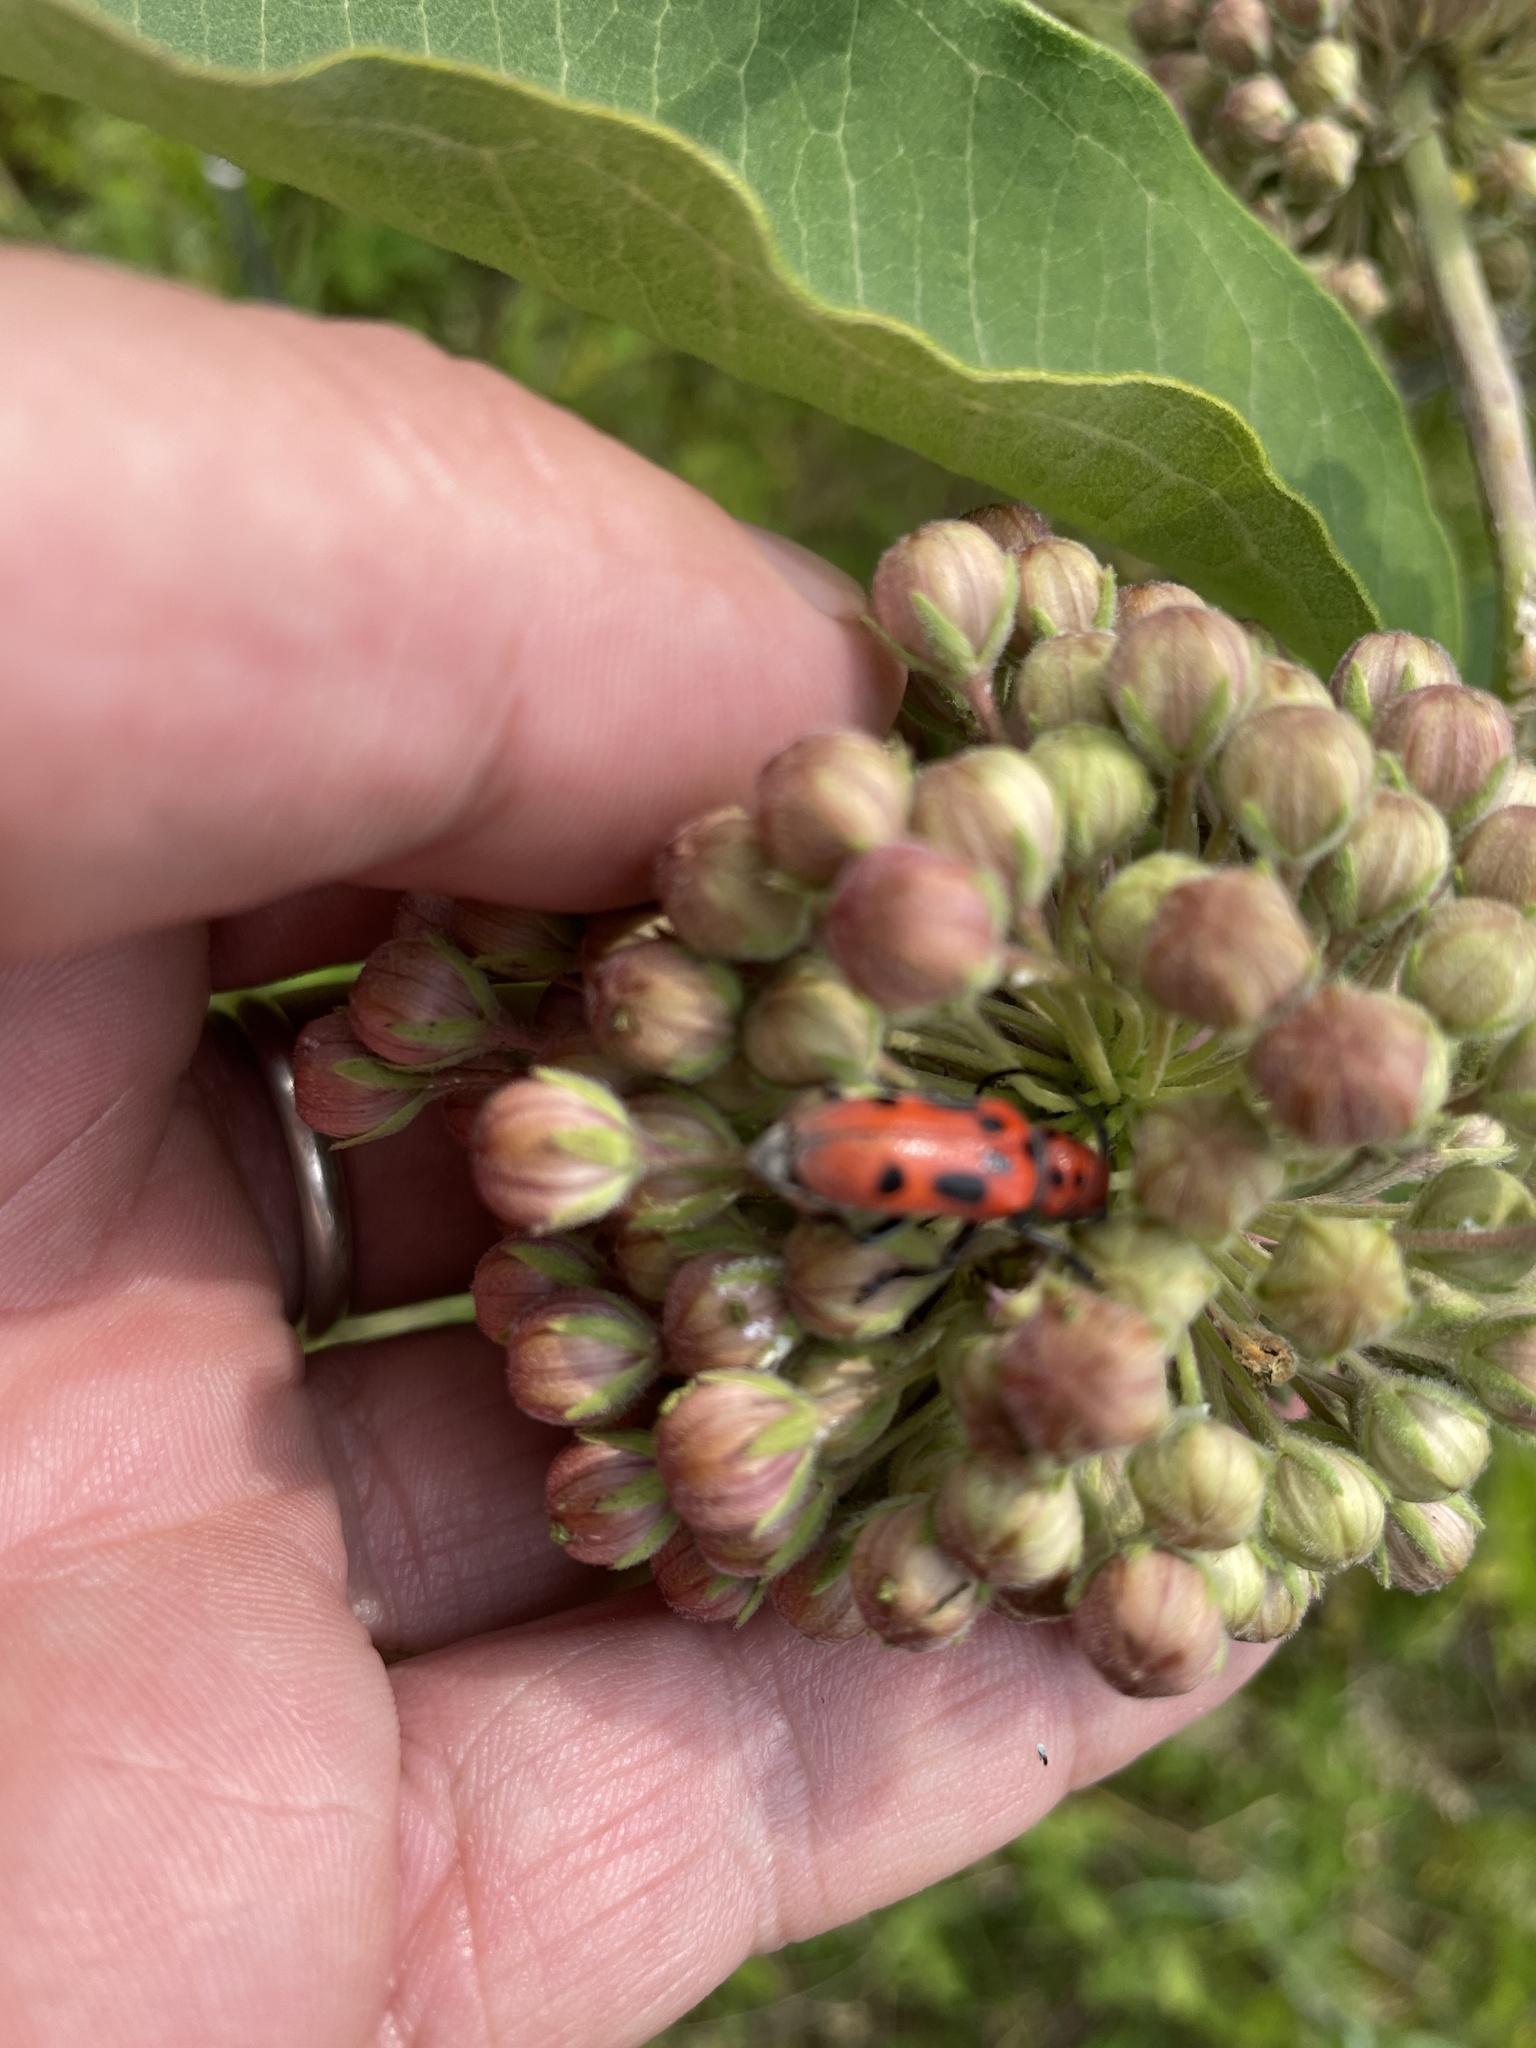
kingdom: Animalia
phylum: Arthropoda
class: Insecta
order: Coleoptera
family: Cerambycidae
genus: Tetraopes
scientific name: Tetraopes tetrophthalmus
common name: Red milkweed beetle
